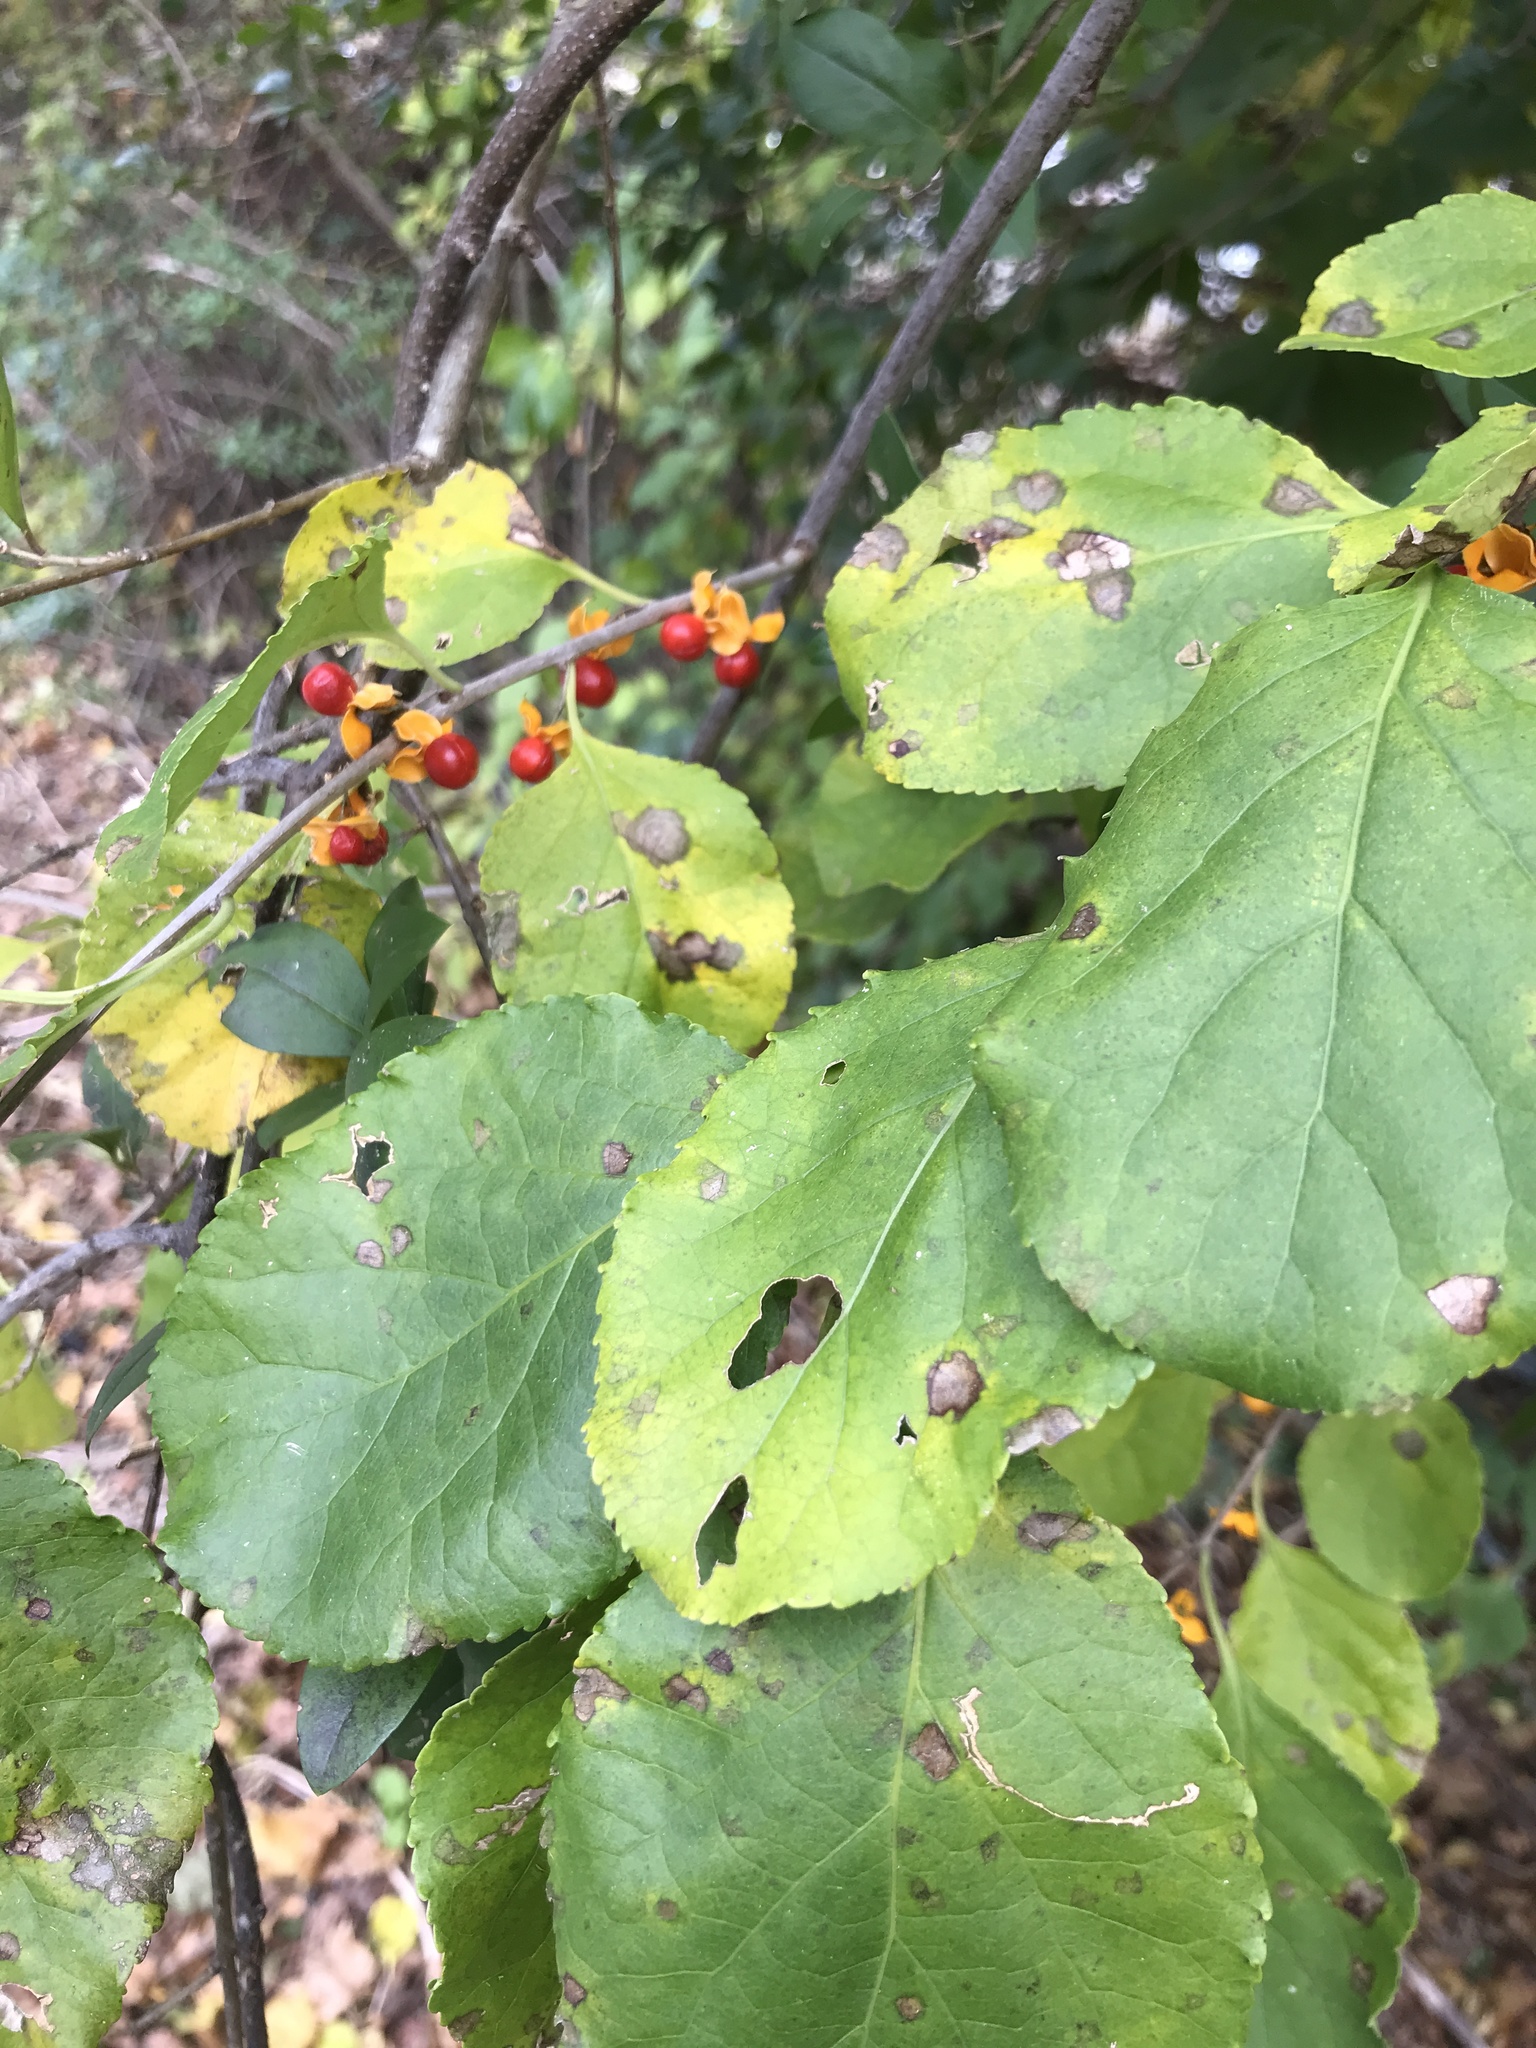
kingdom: Plantae
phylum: Tracheophyta
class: Magnoliopsida
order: Celastrales
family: Celastraceae
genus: Celastrus
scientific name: Celastrus orbiculatus
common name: Oriental bittersweet
